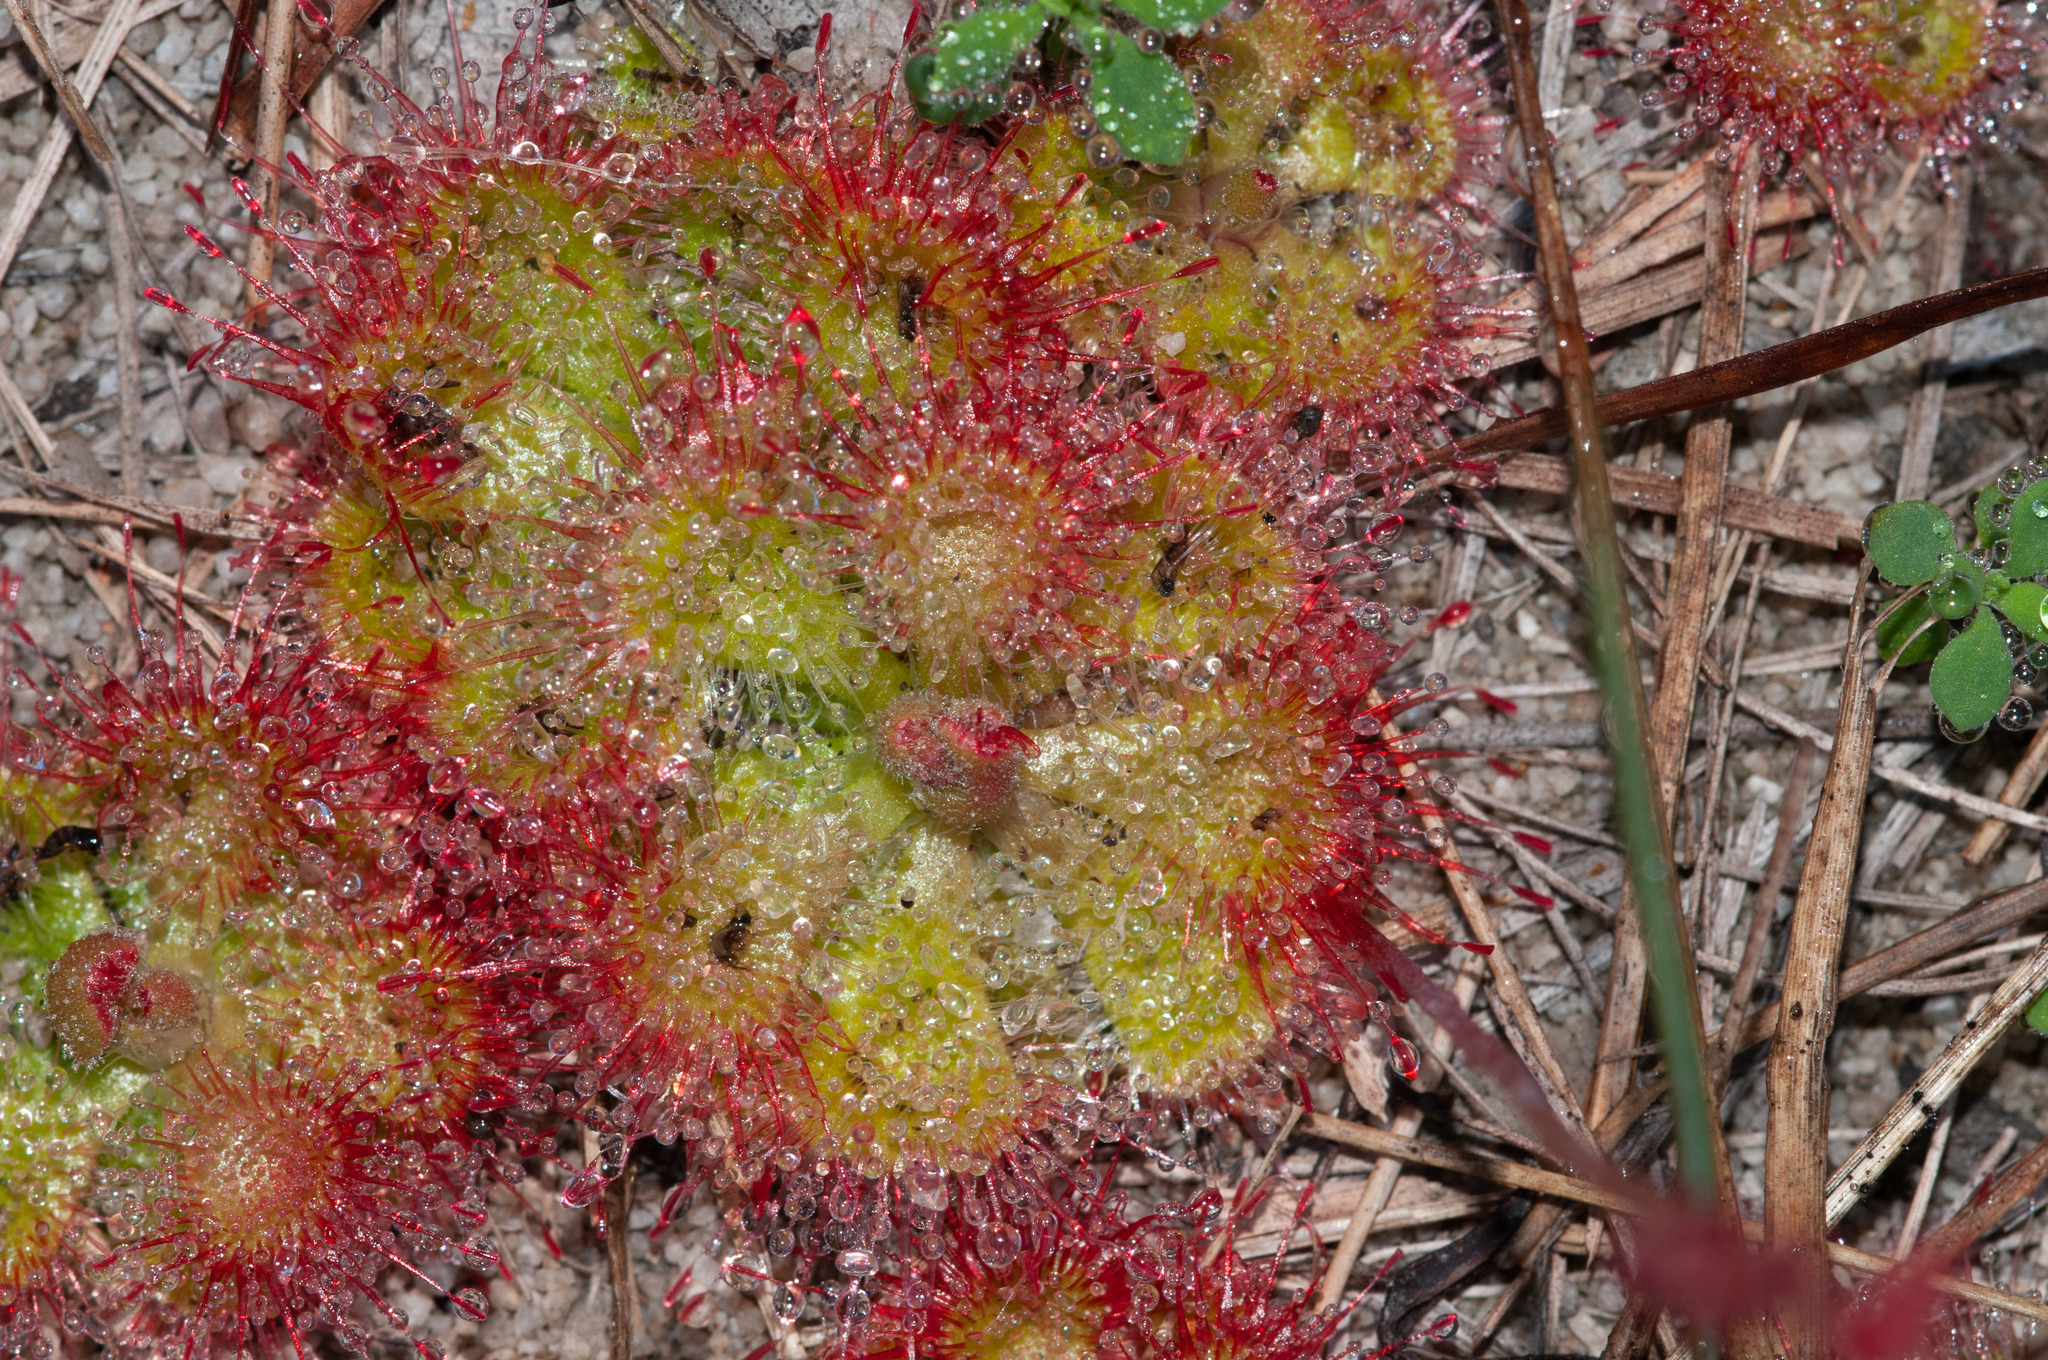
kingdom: Plantae
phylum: Tracheophyta
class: Magnoliopsida
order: Caryophyllales
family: Droseraceae
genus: Drosera
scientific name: Drosera spatulata
